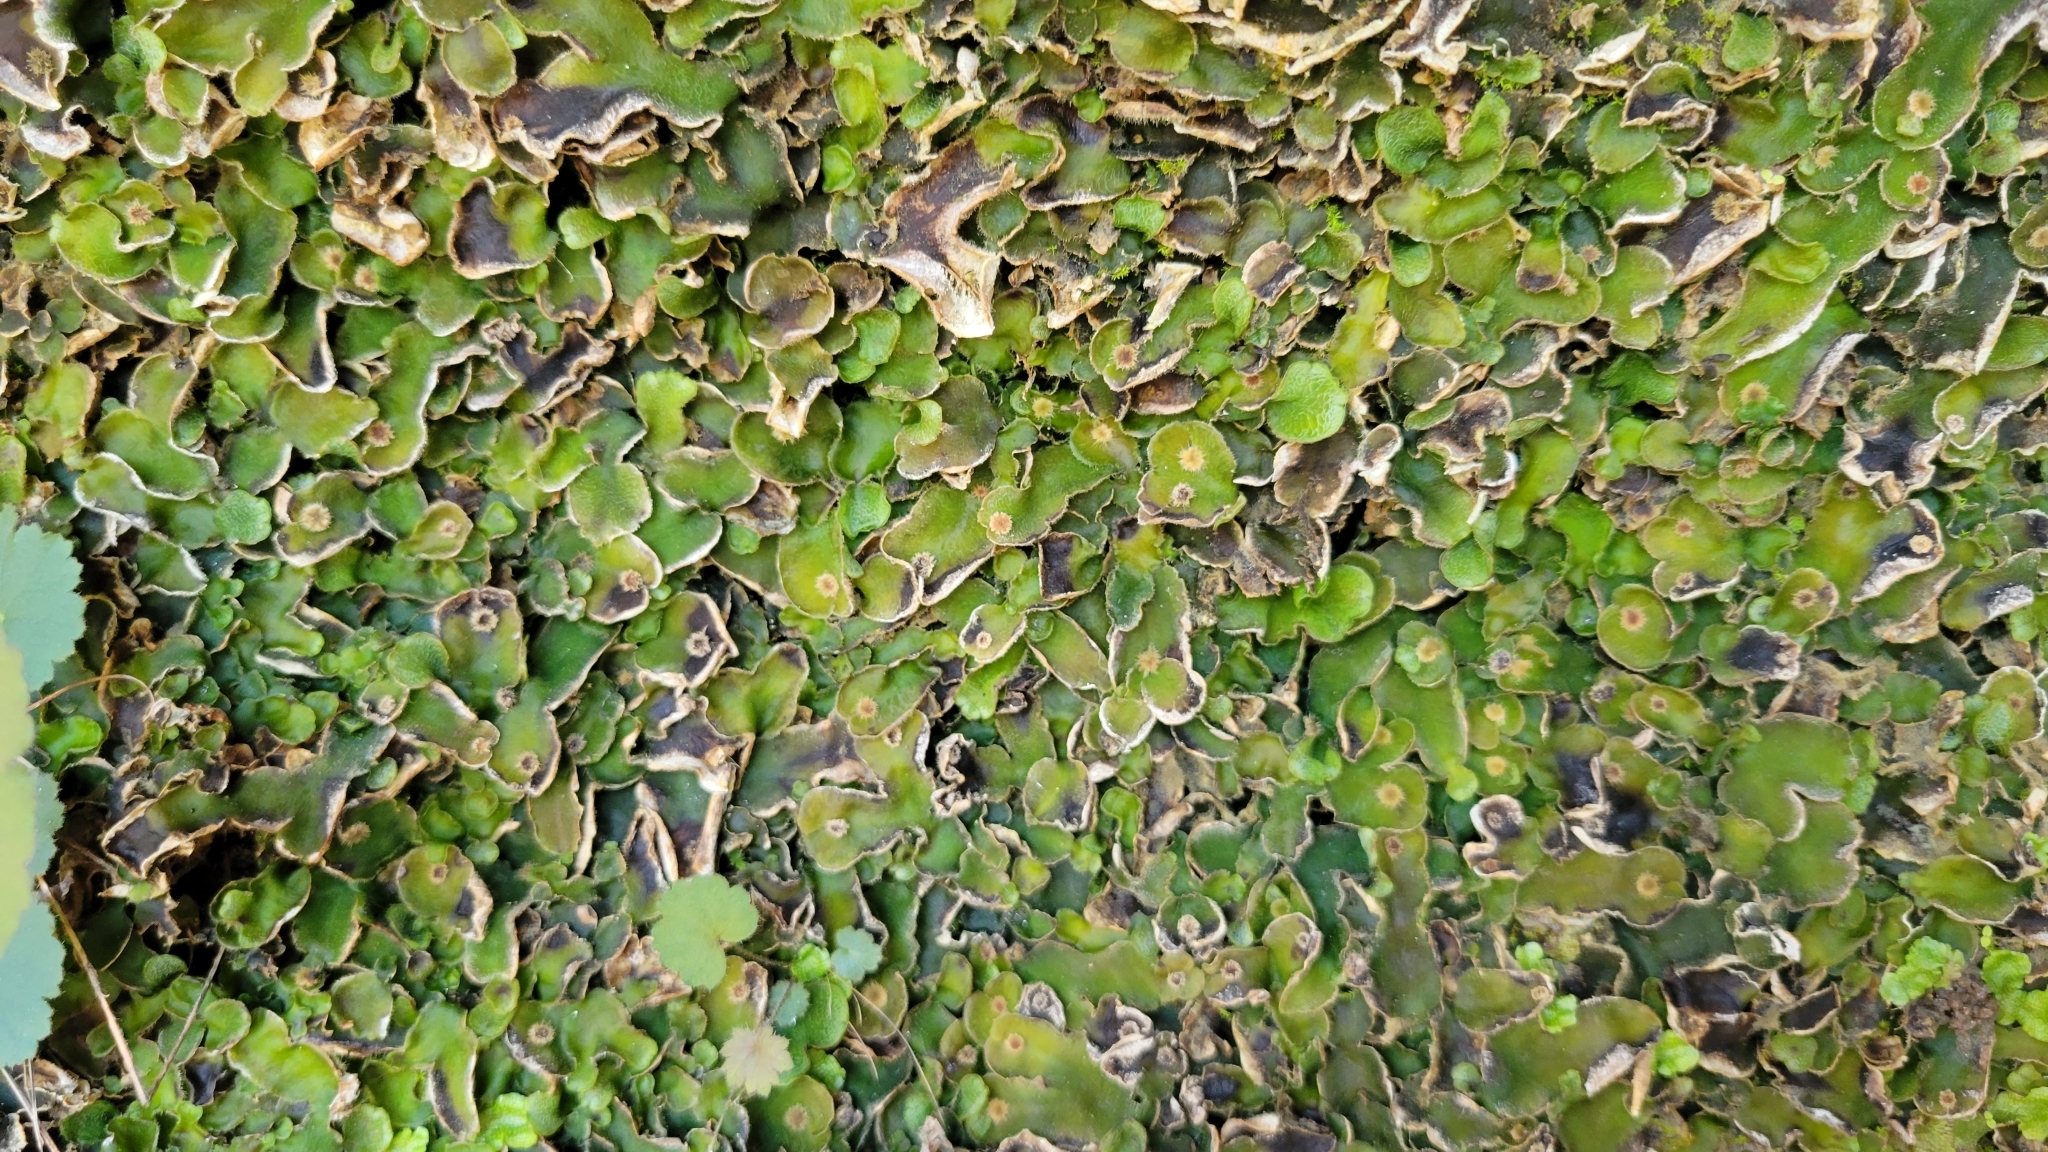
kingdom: Plantae
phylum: Marchantiophyta
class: Marchantiopsida
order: Marchantiales
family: Dumortieraceae
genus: Dumortiera
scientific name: Dumortiera hirsuta
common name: Dumortier's liverwort
